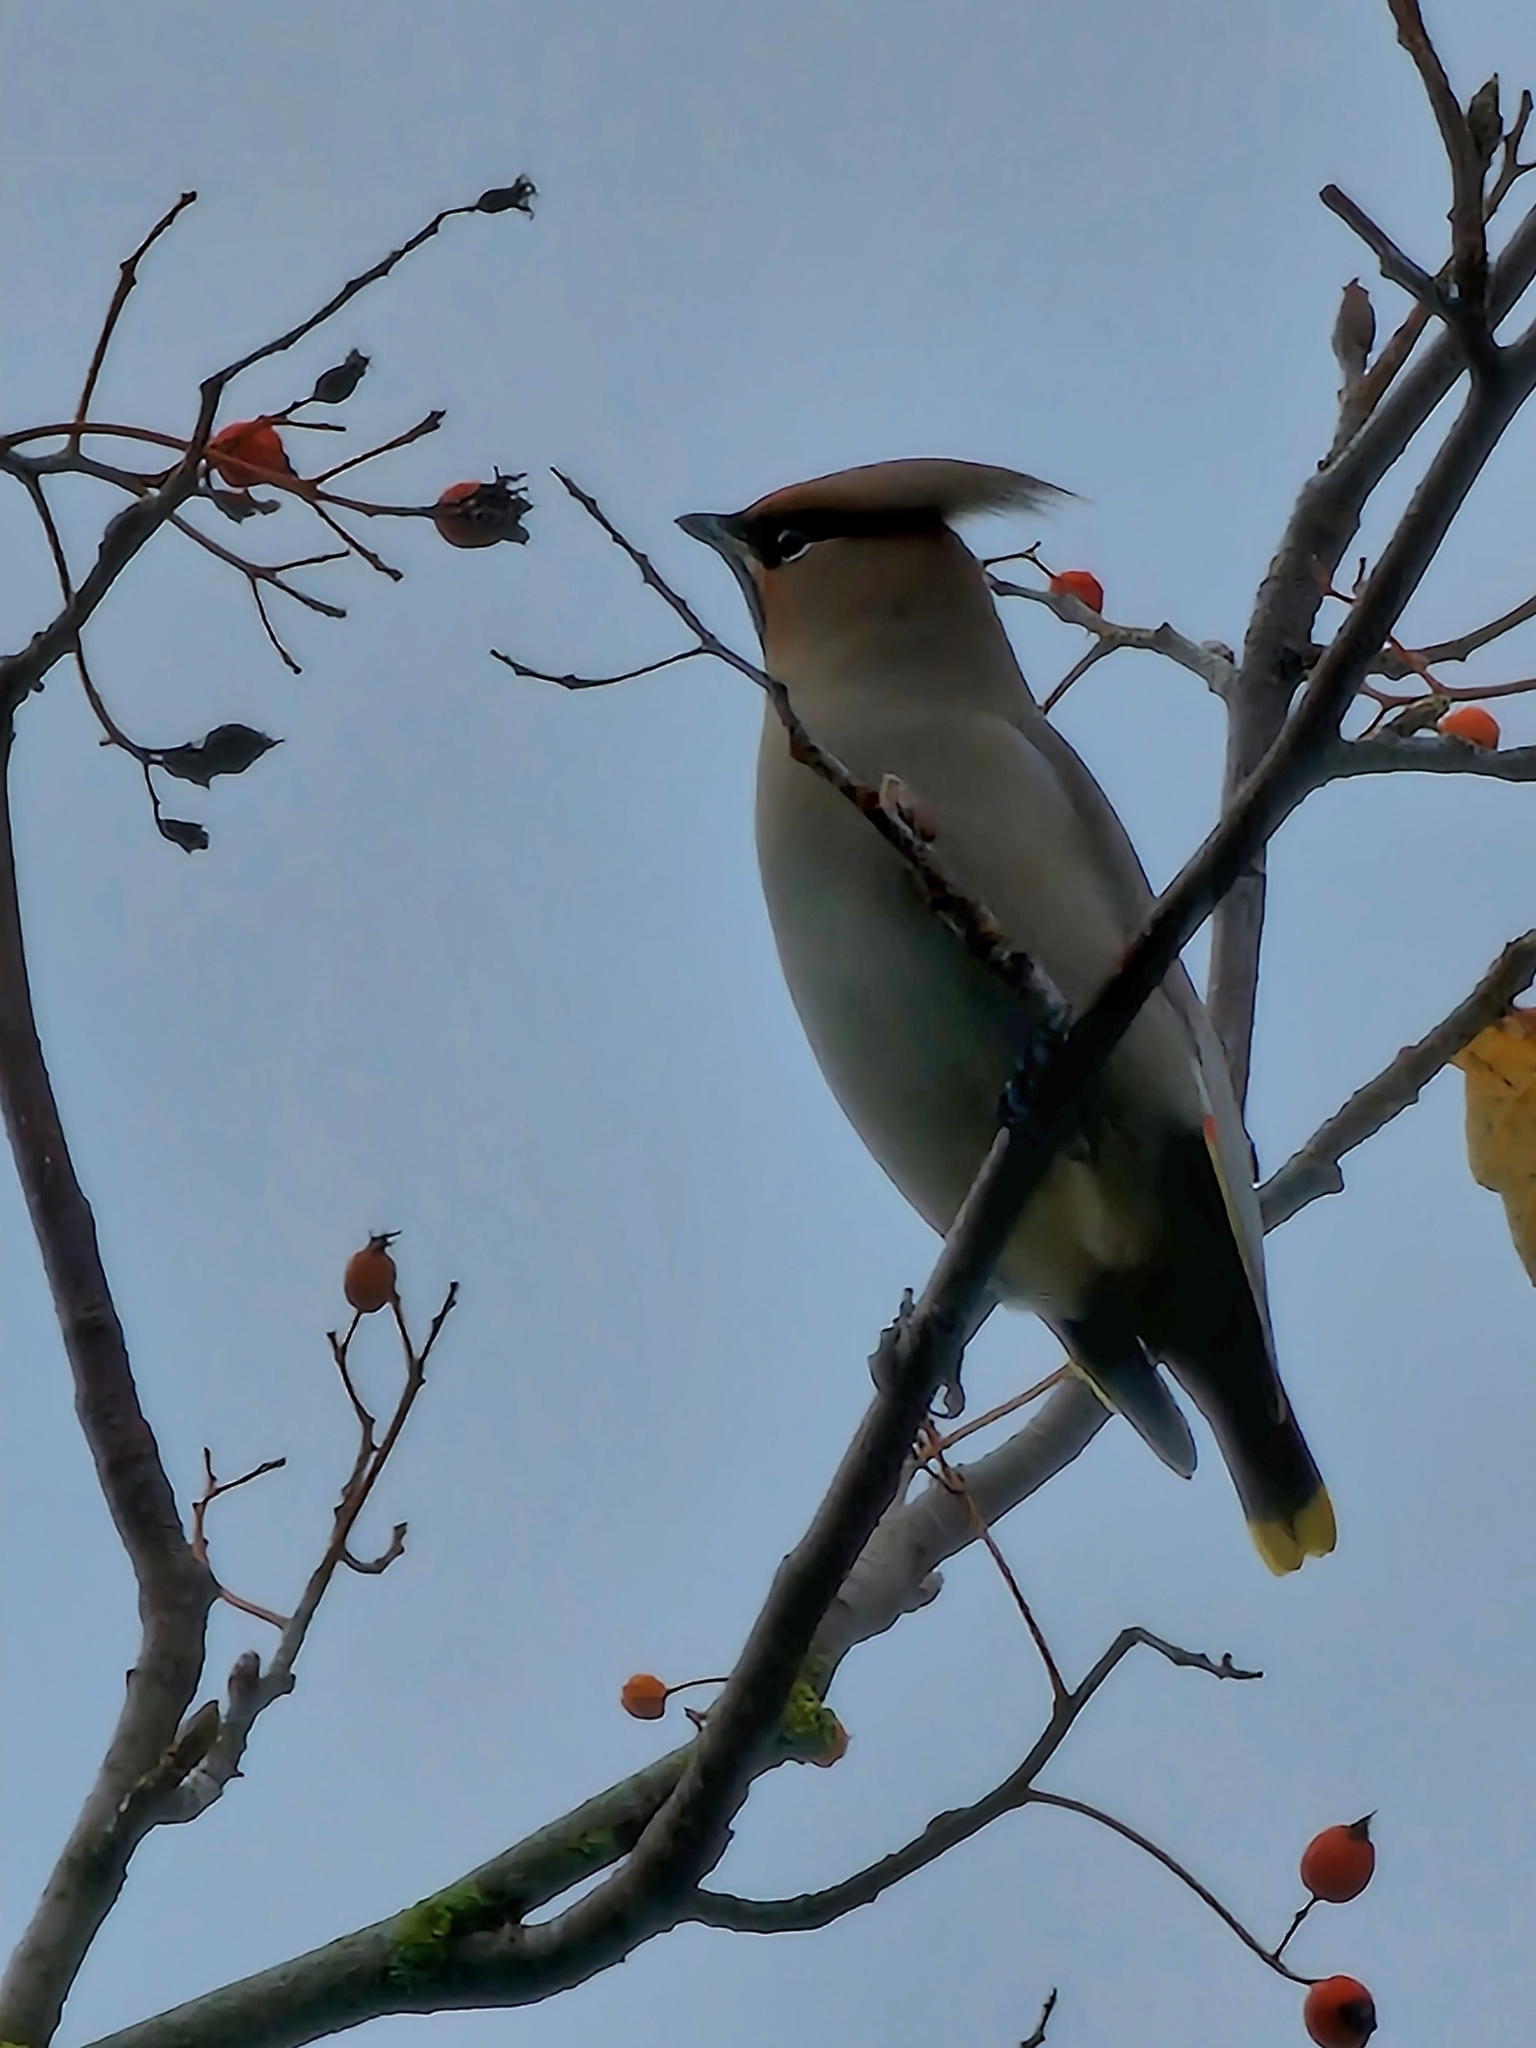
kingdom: Animalia
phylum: Chordata
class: Aves
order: Passeriformes
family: Bombycillidae
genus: Bombycilla
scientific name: Bombycilla garrulus
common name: Bohemian waxwing
